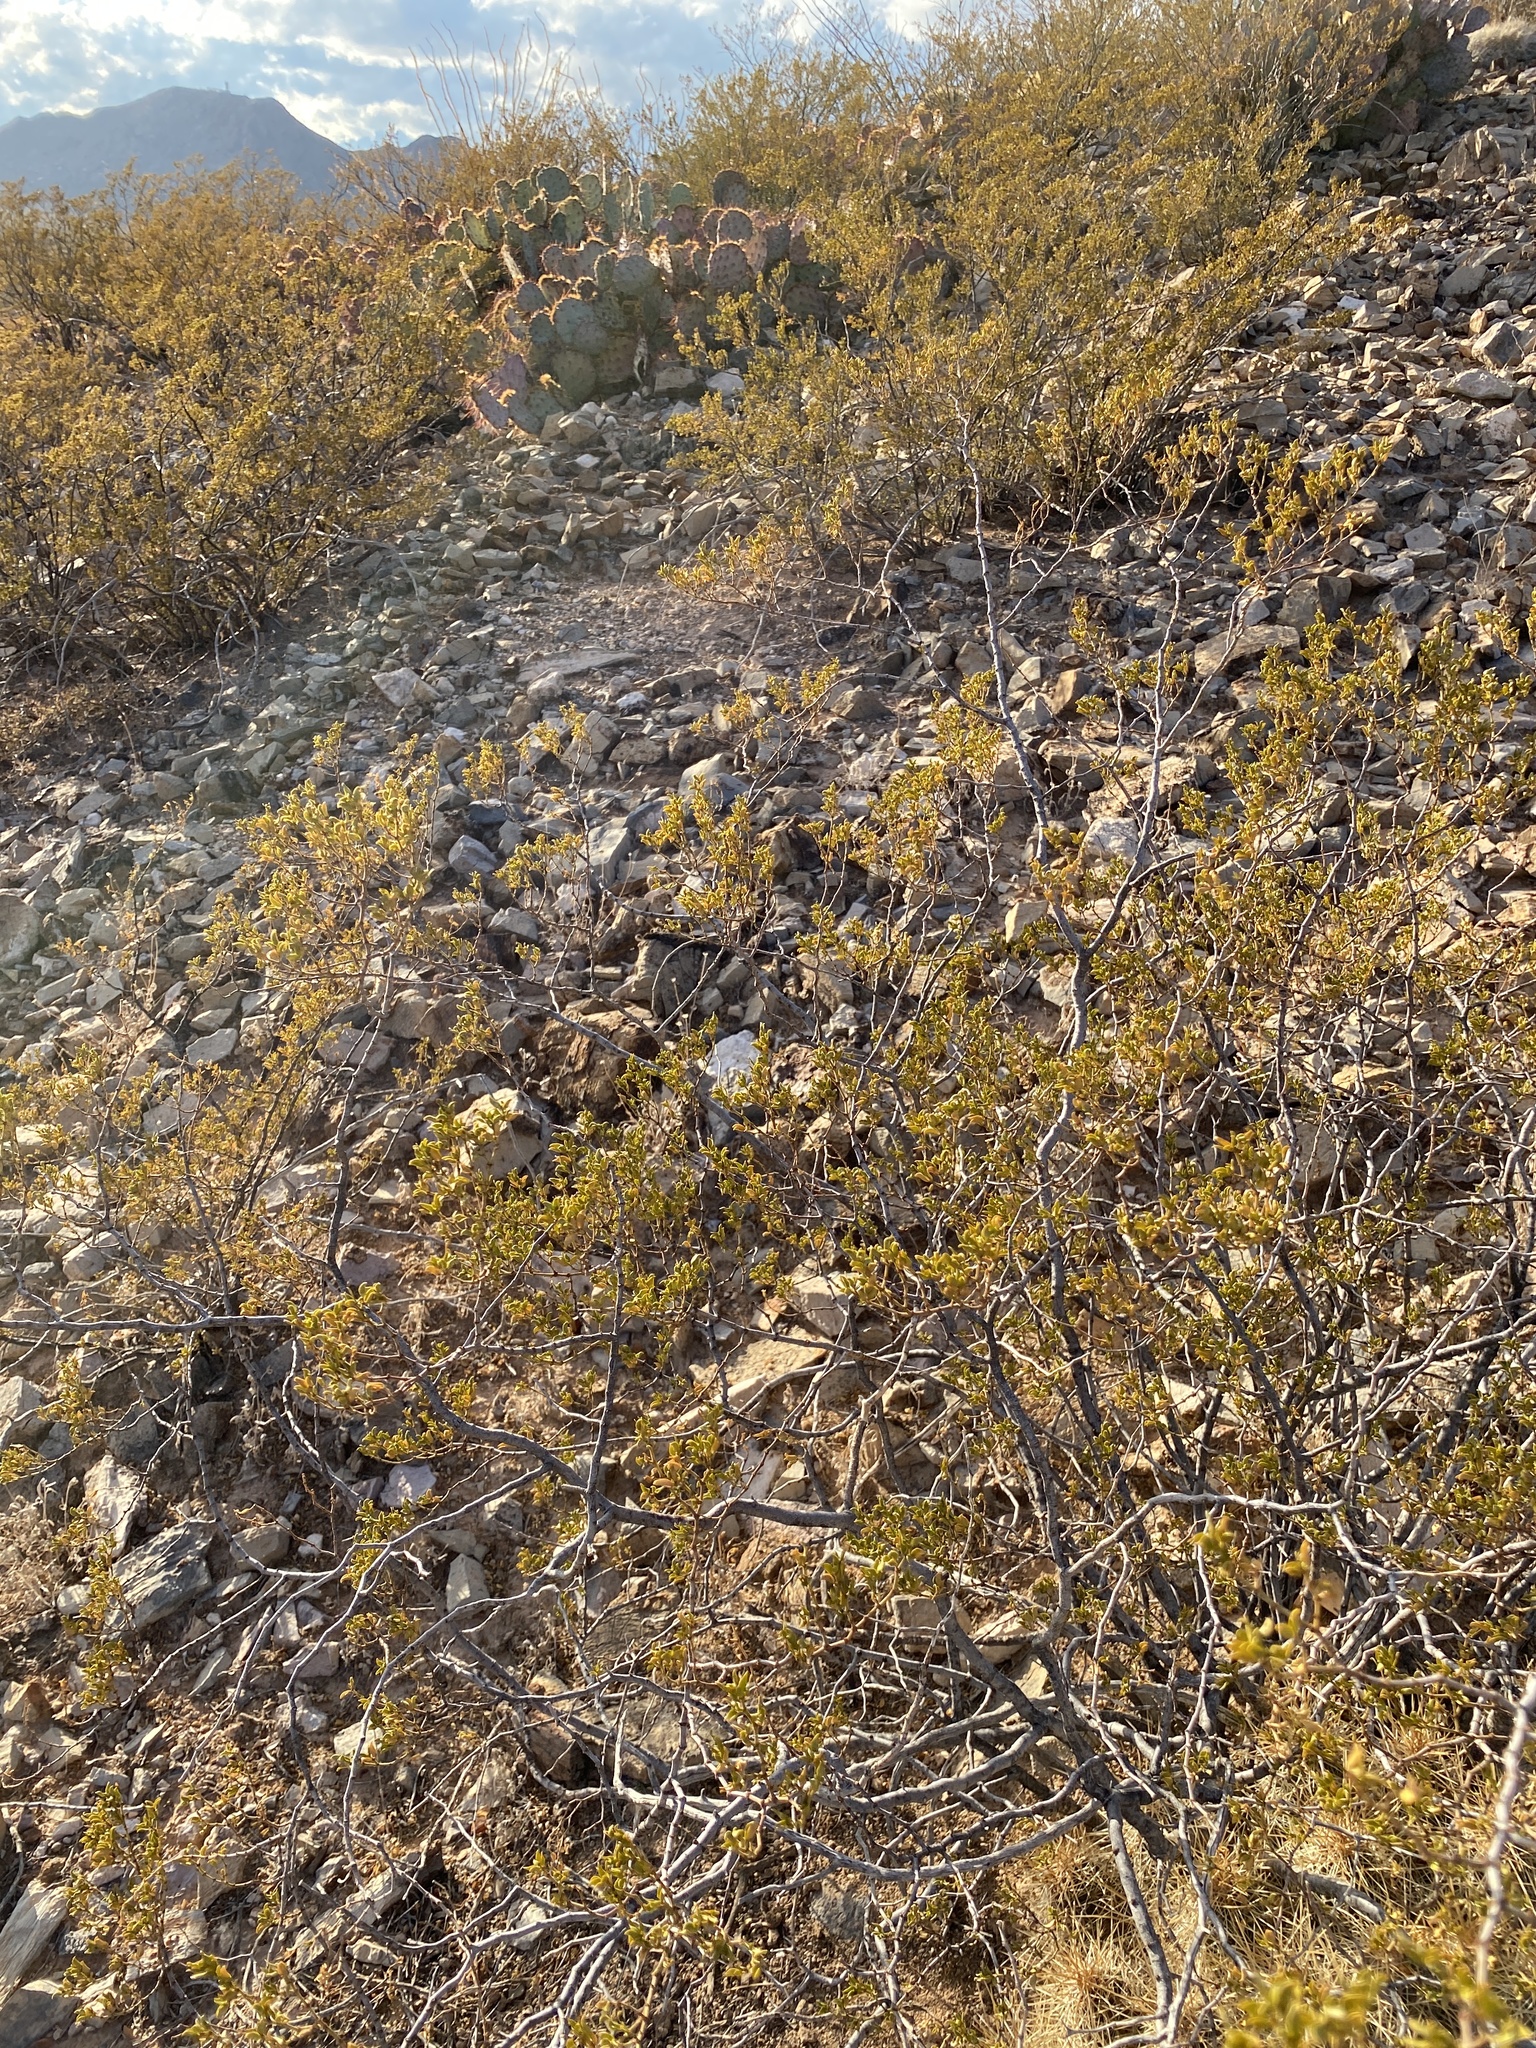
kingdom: Plantae
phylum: Tracheophyta
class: Magnoliopsida
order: Zygophyllales
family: Zygophyllaceae
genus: Larrea
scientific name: Larrea tridentata
